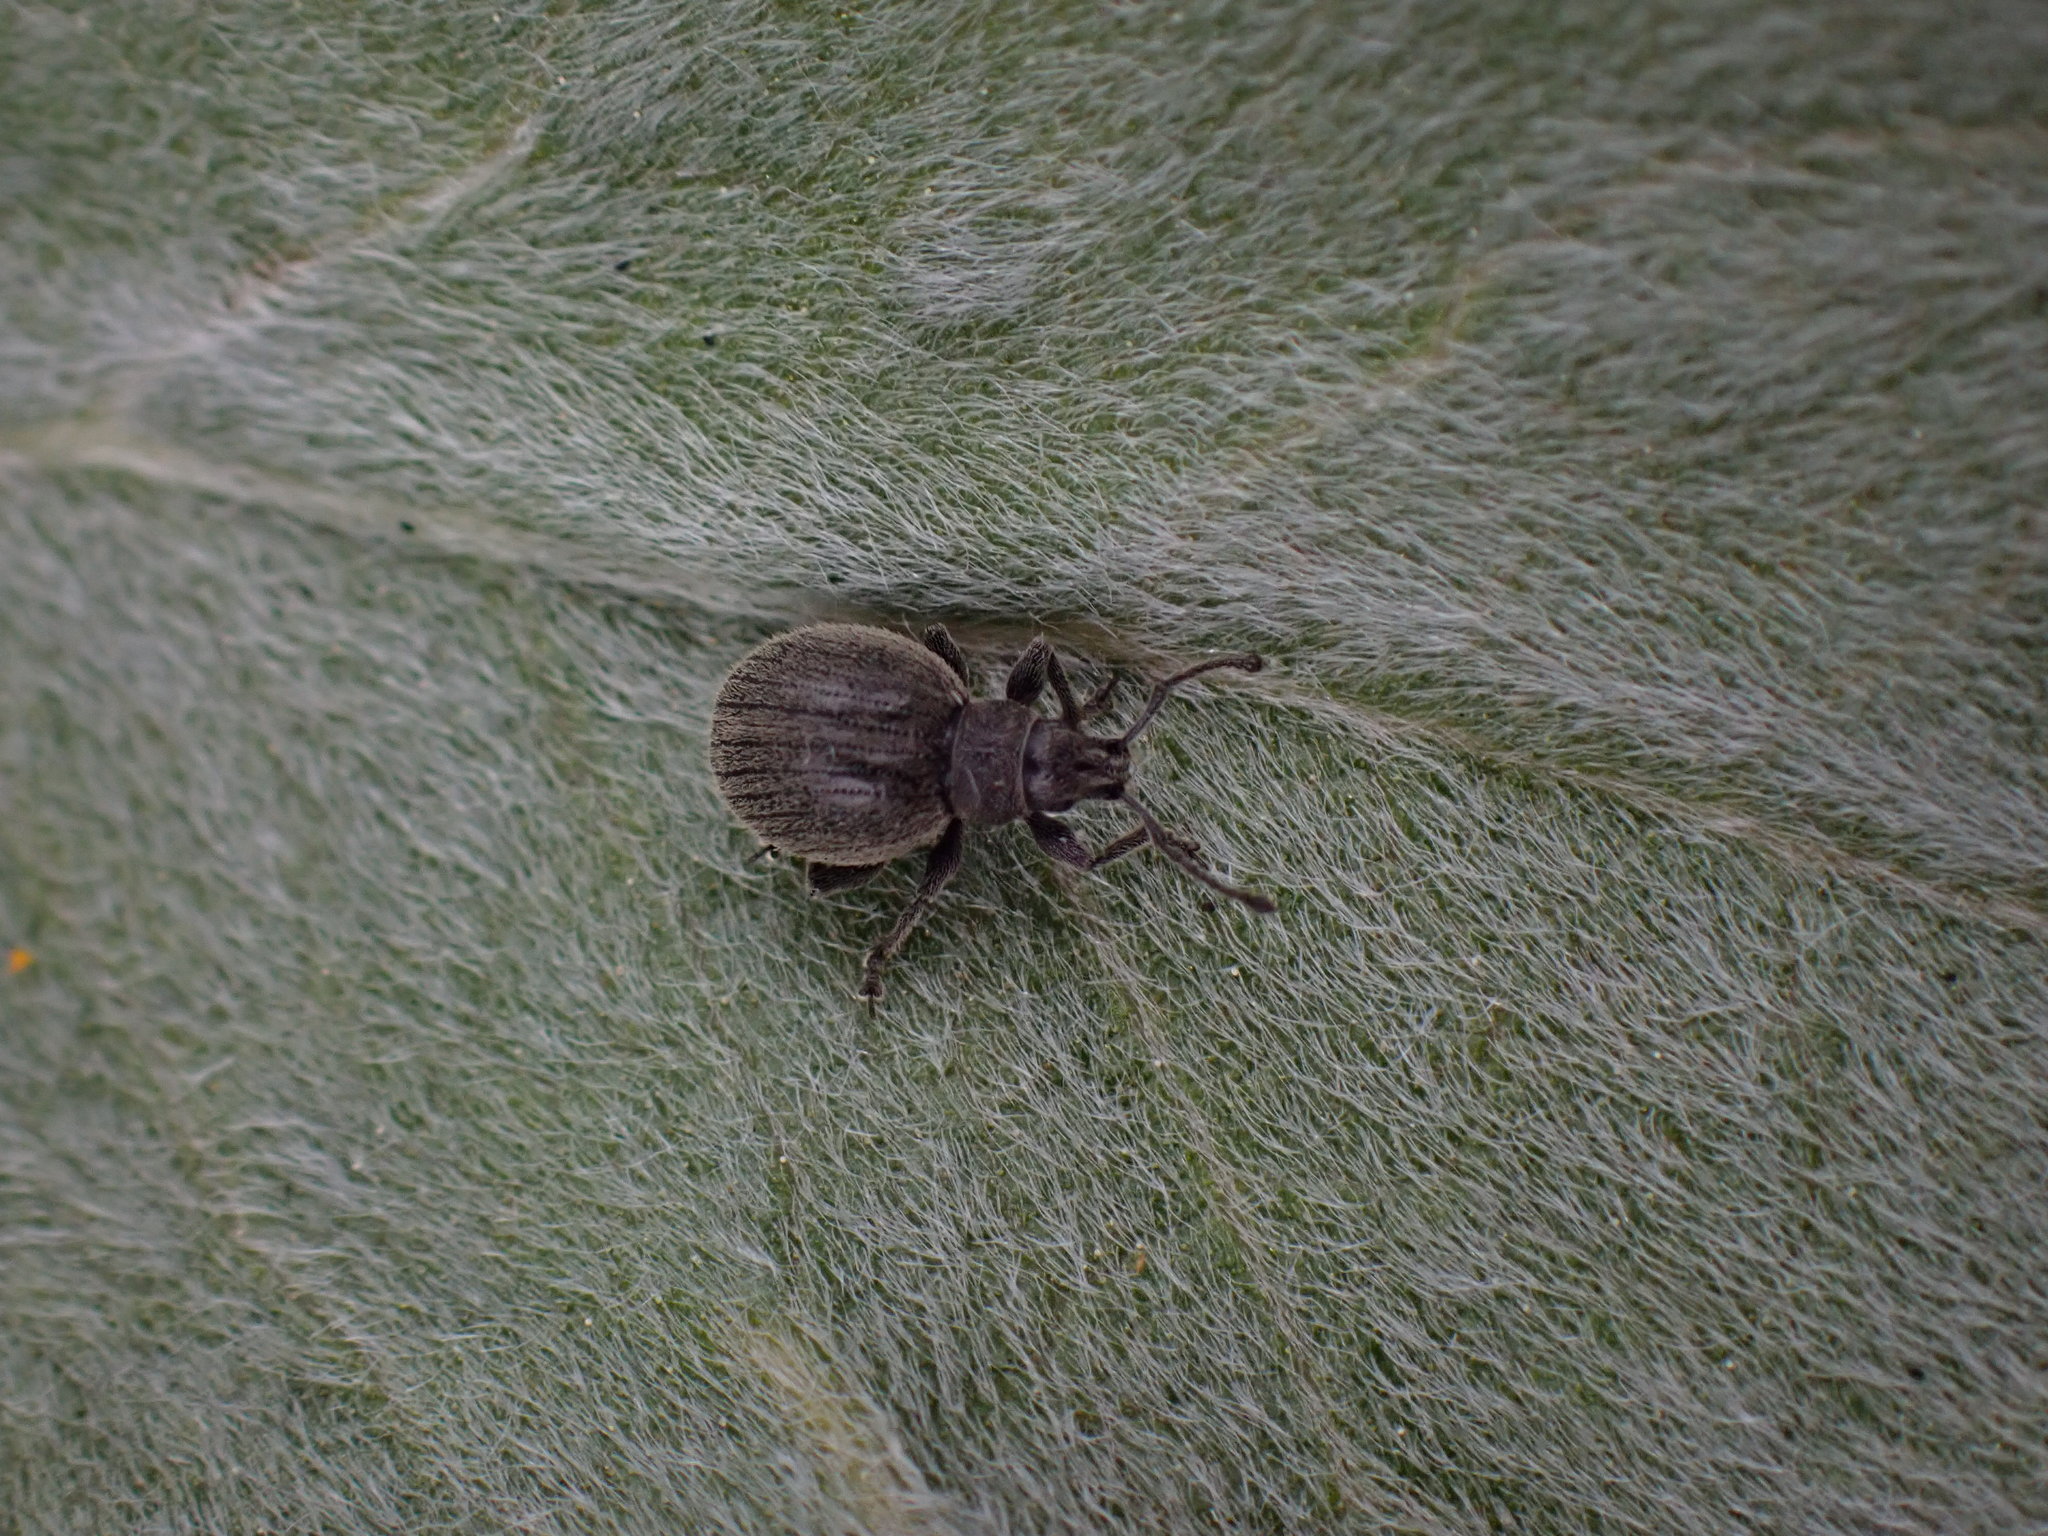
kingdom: Animalia
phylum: Arthropoda
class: Insecta
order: Coleoptera
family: Curculionidae
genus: Omias
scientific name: Omias saccatus
